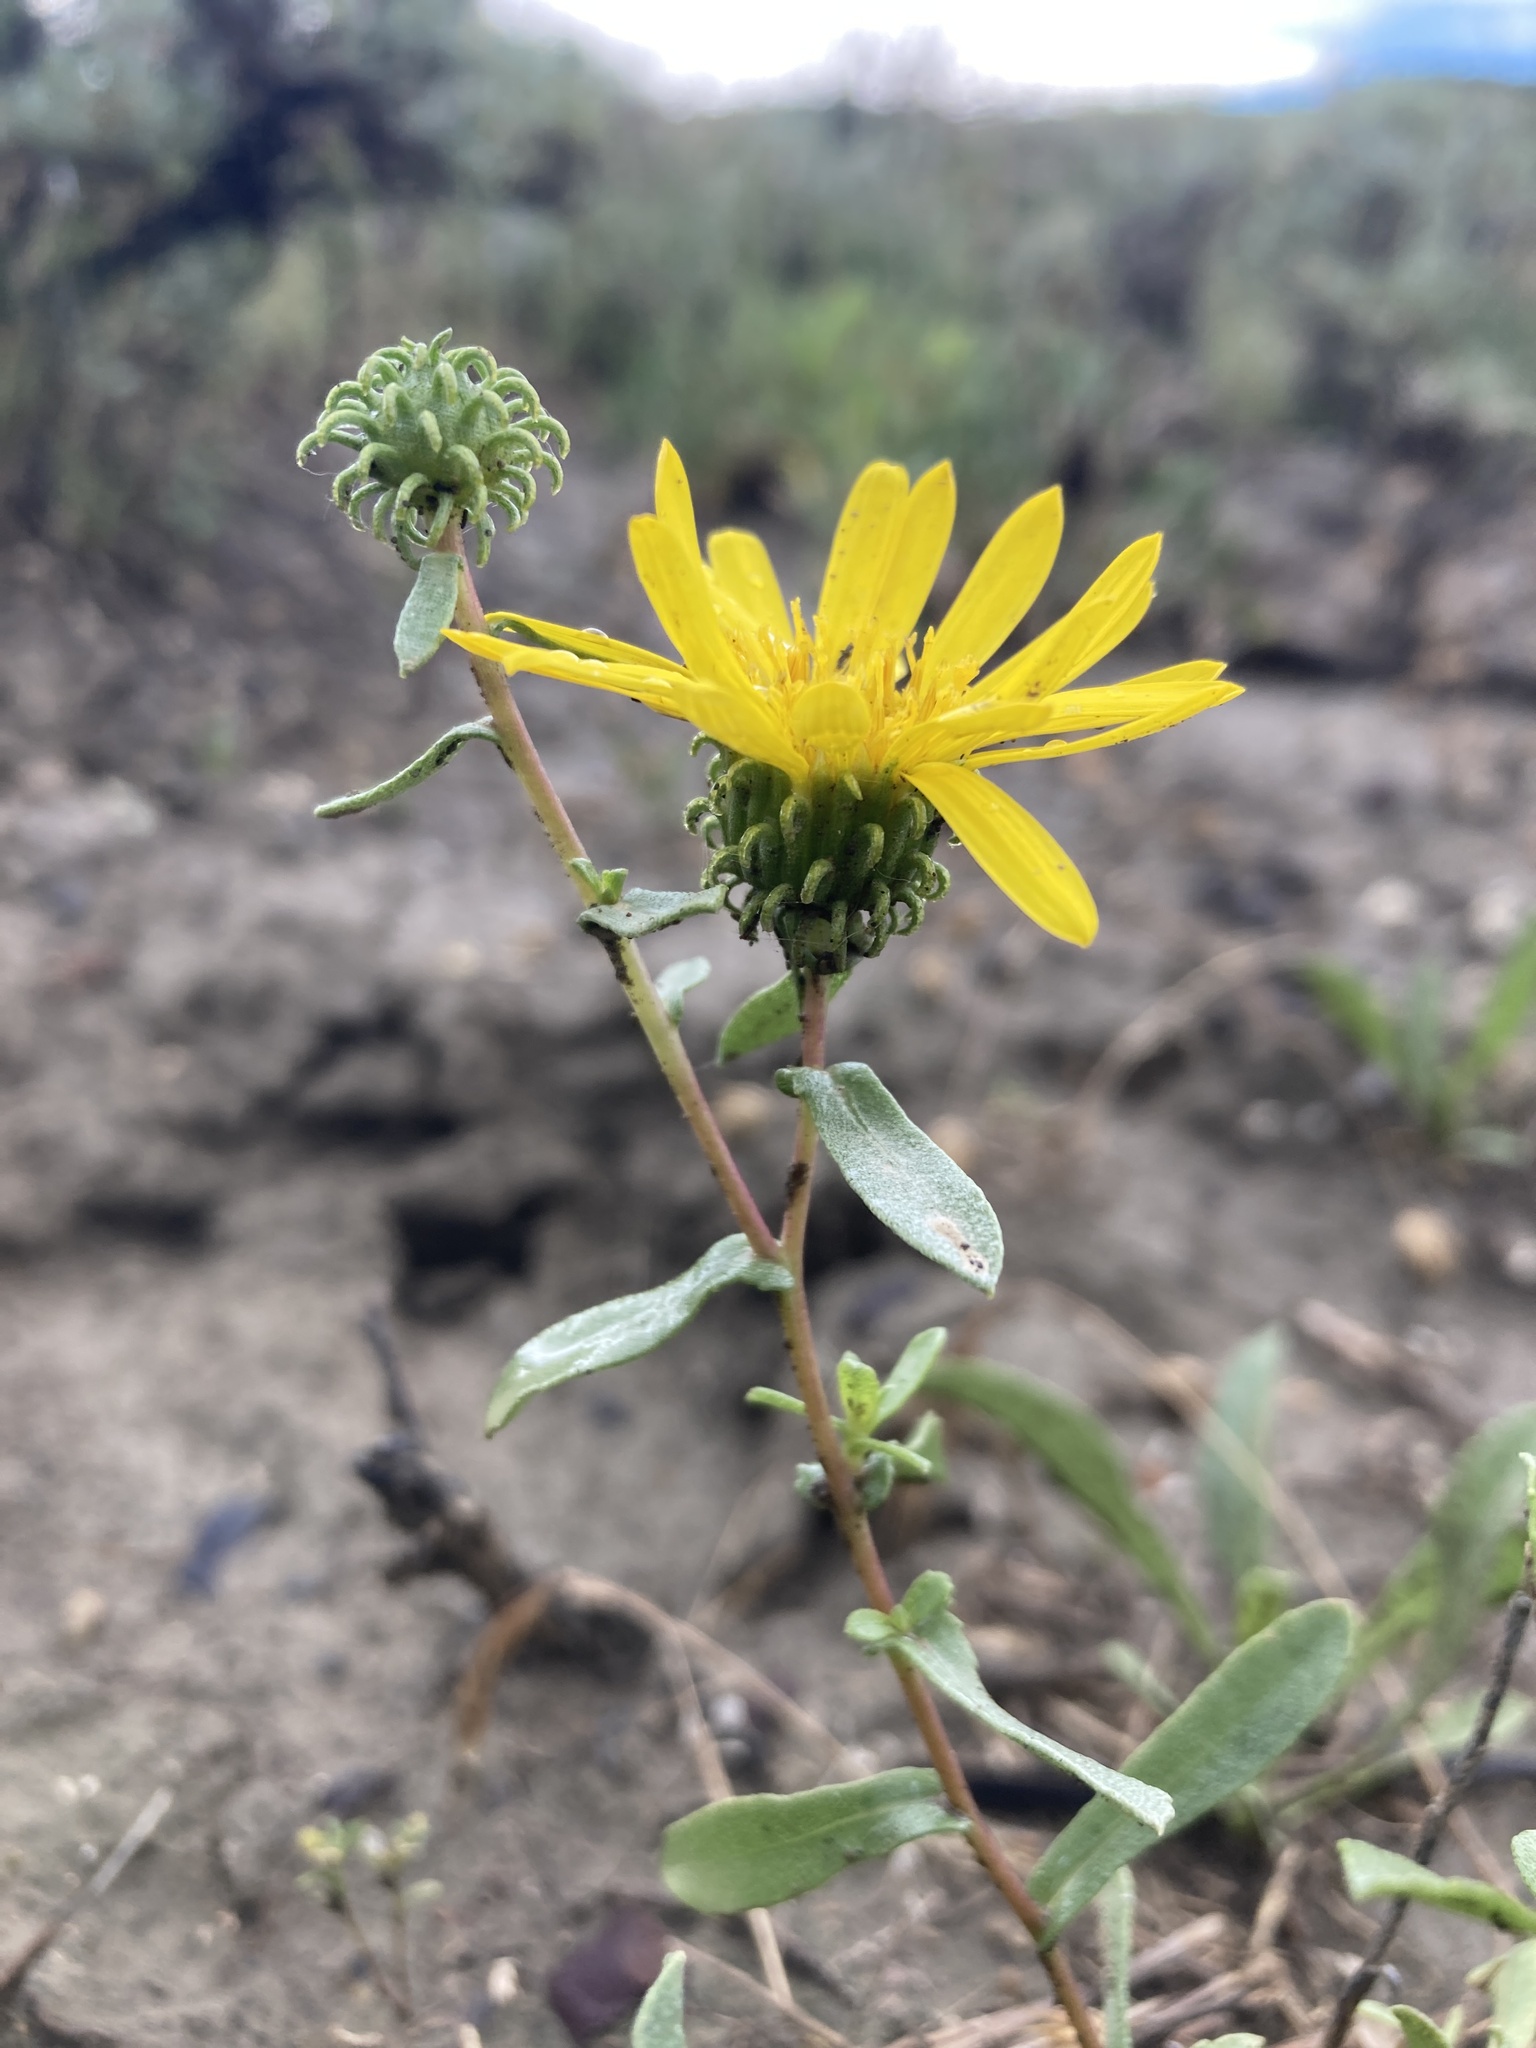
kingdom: Plantae
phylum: Tracheophyta
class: Magnoliopsida
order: Asterales
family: Asteraceae
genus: Grindelia
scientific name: Grindelia squarrosa
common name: Curly-cup gumweed
